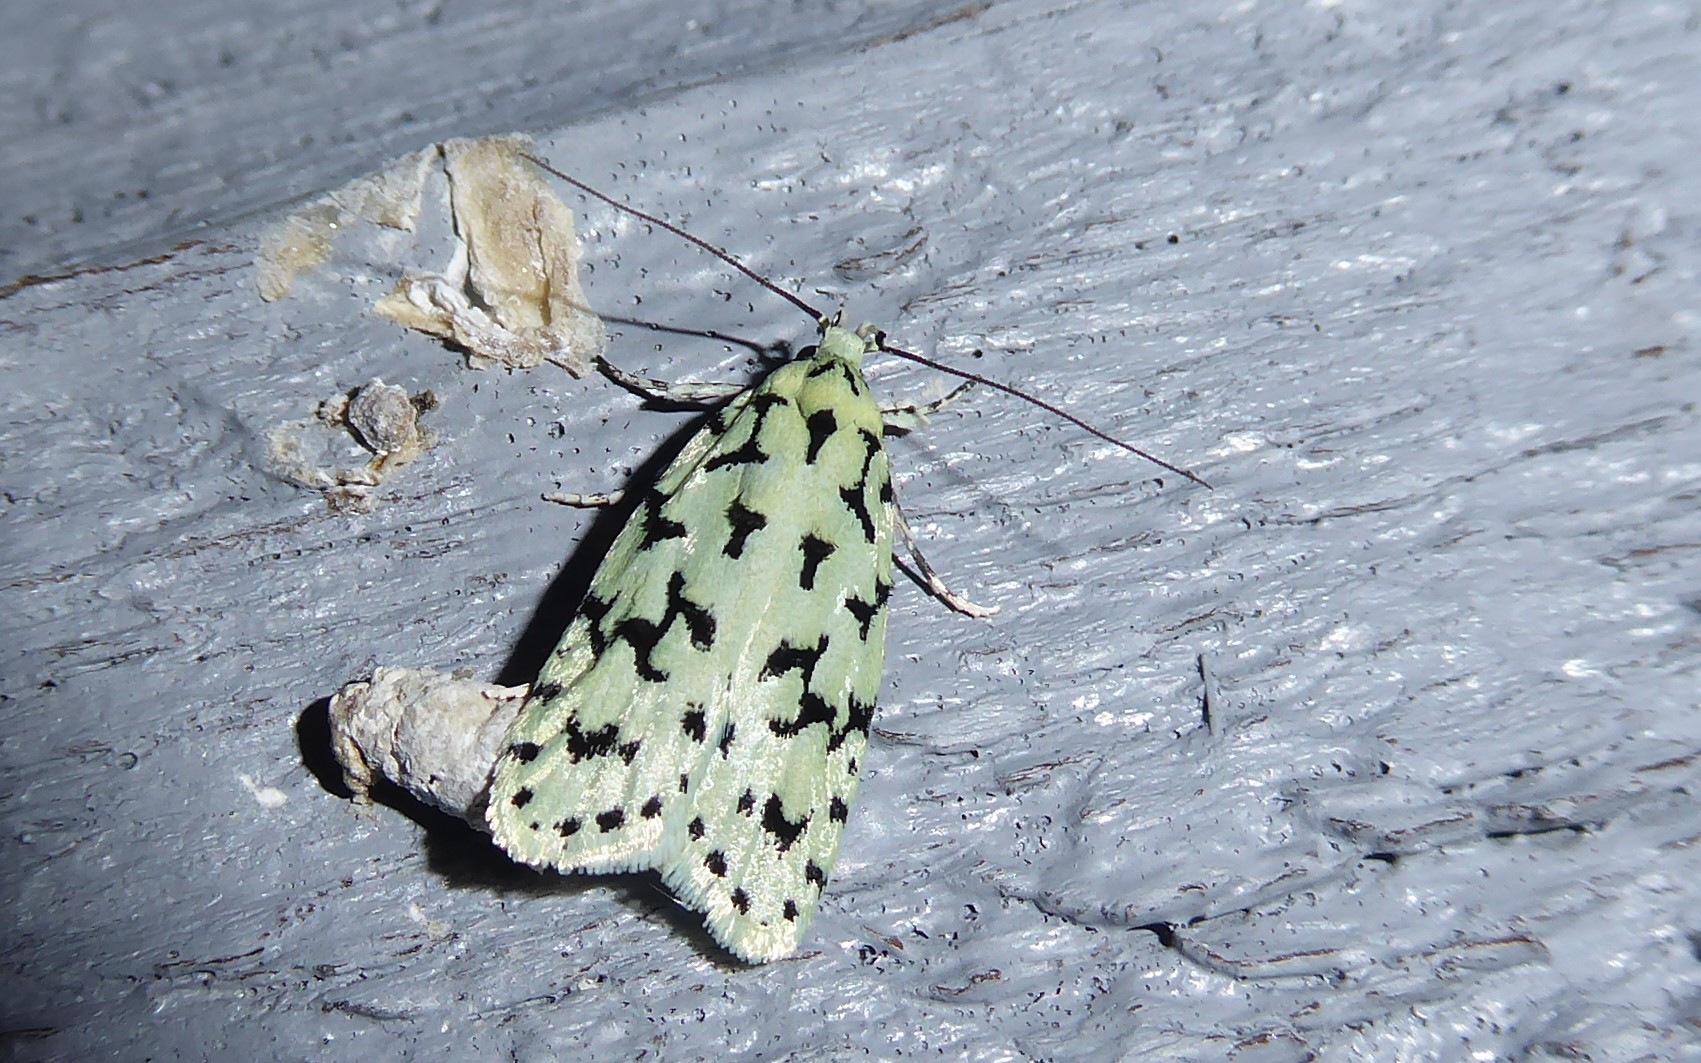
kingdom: Animalia
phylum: Arthropoda
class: Insecta
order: Lepidoptera
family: Oecophoridae
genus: Izatha
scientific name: Izatha huttoni
